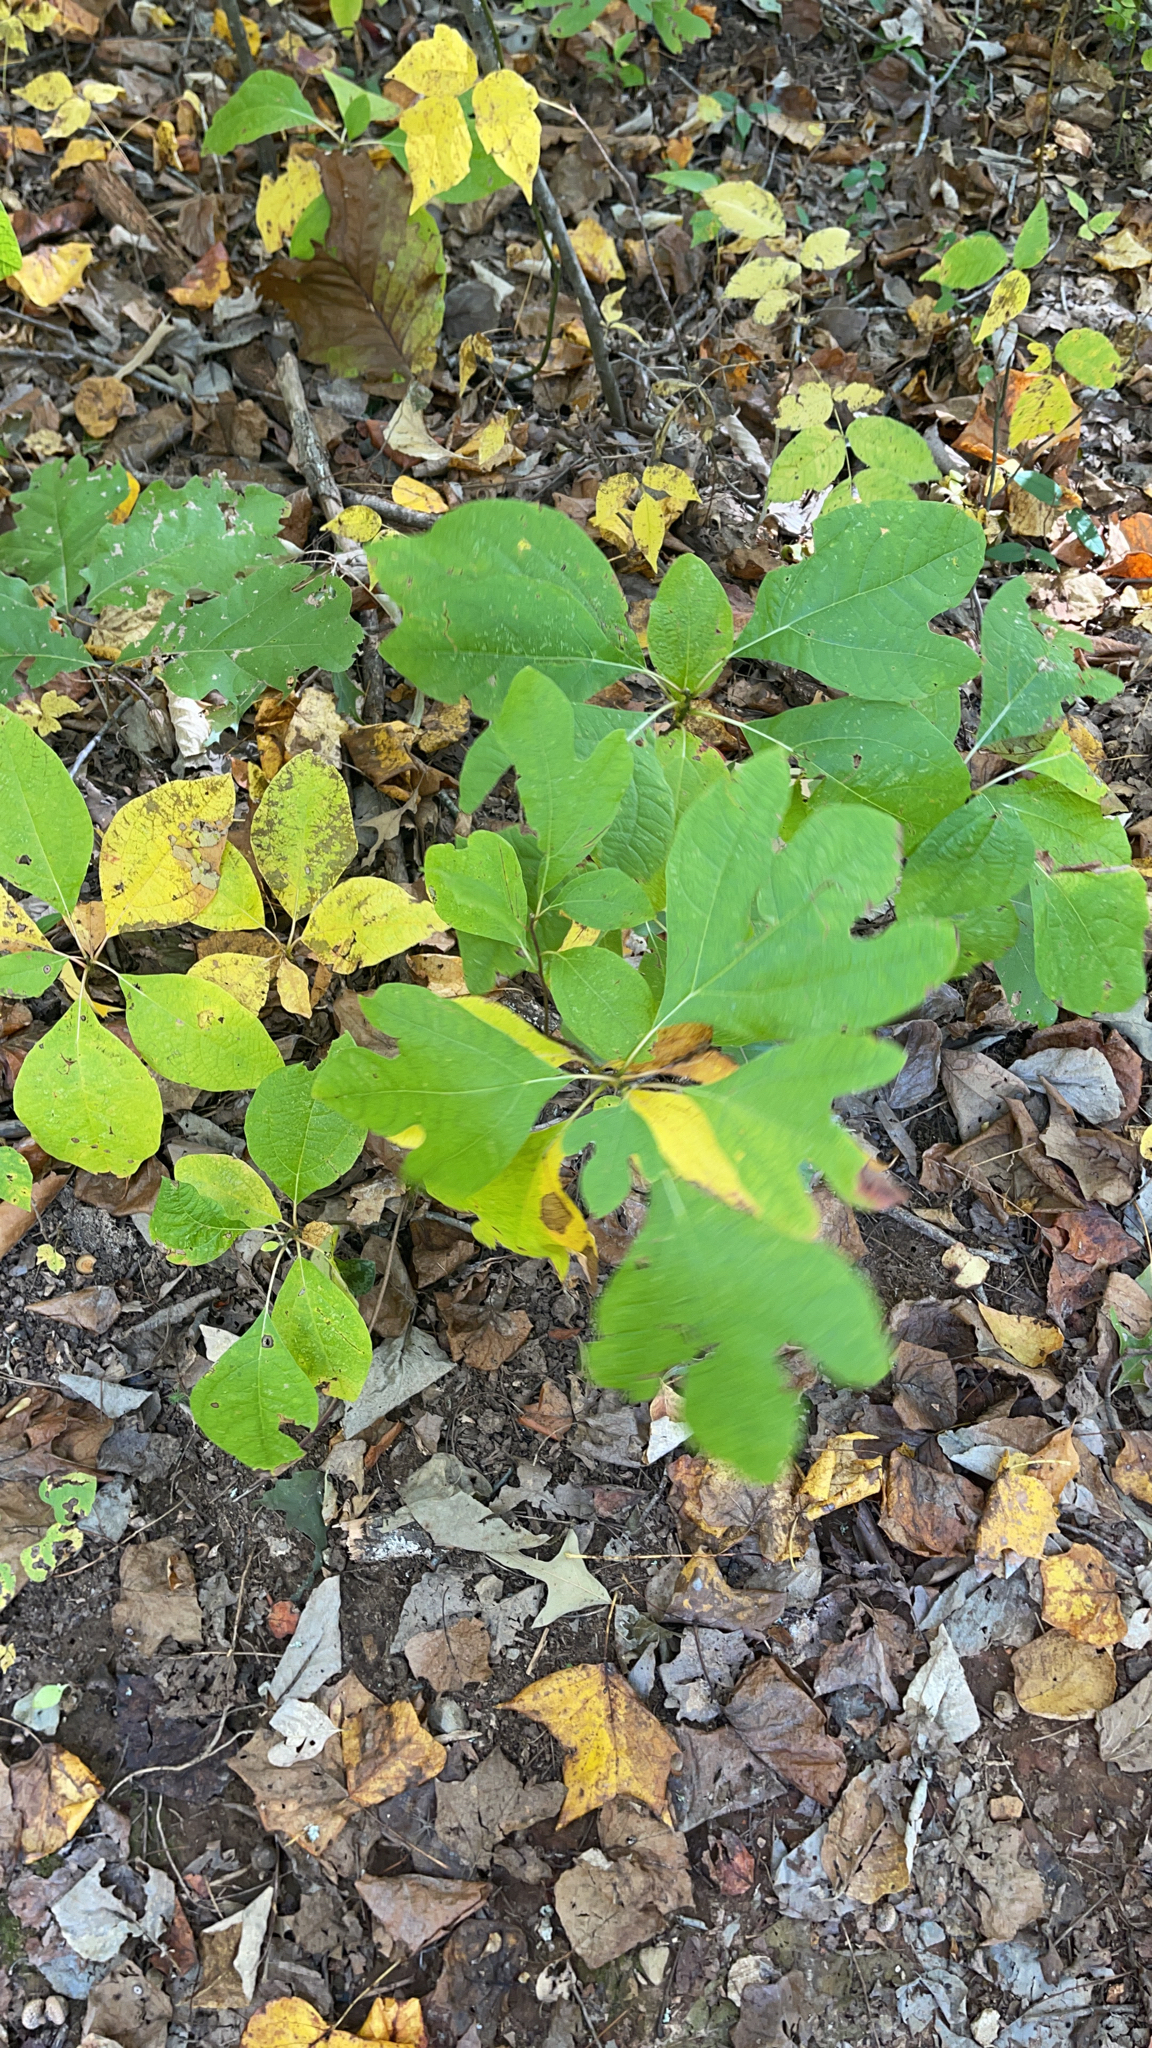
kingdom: Plantae
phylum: Tracheophyta
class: Magnoliopsida
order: Laurales
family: Lauraceae
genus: Sassafras
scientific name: Sassafras albidum
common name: Sassafras
